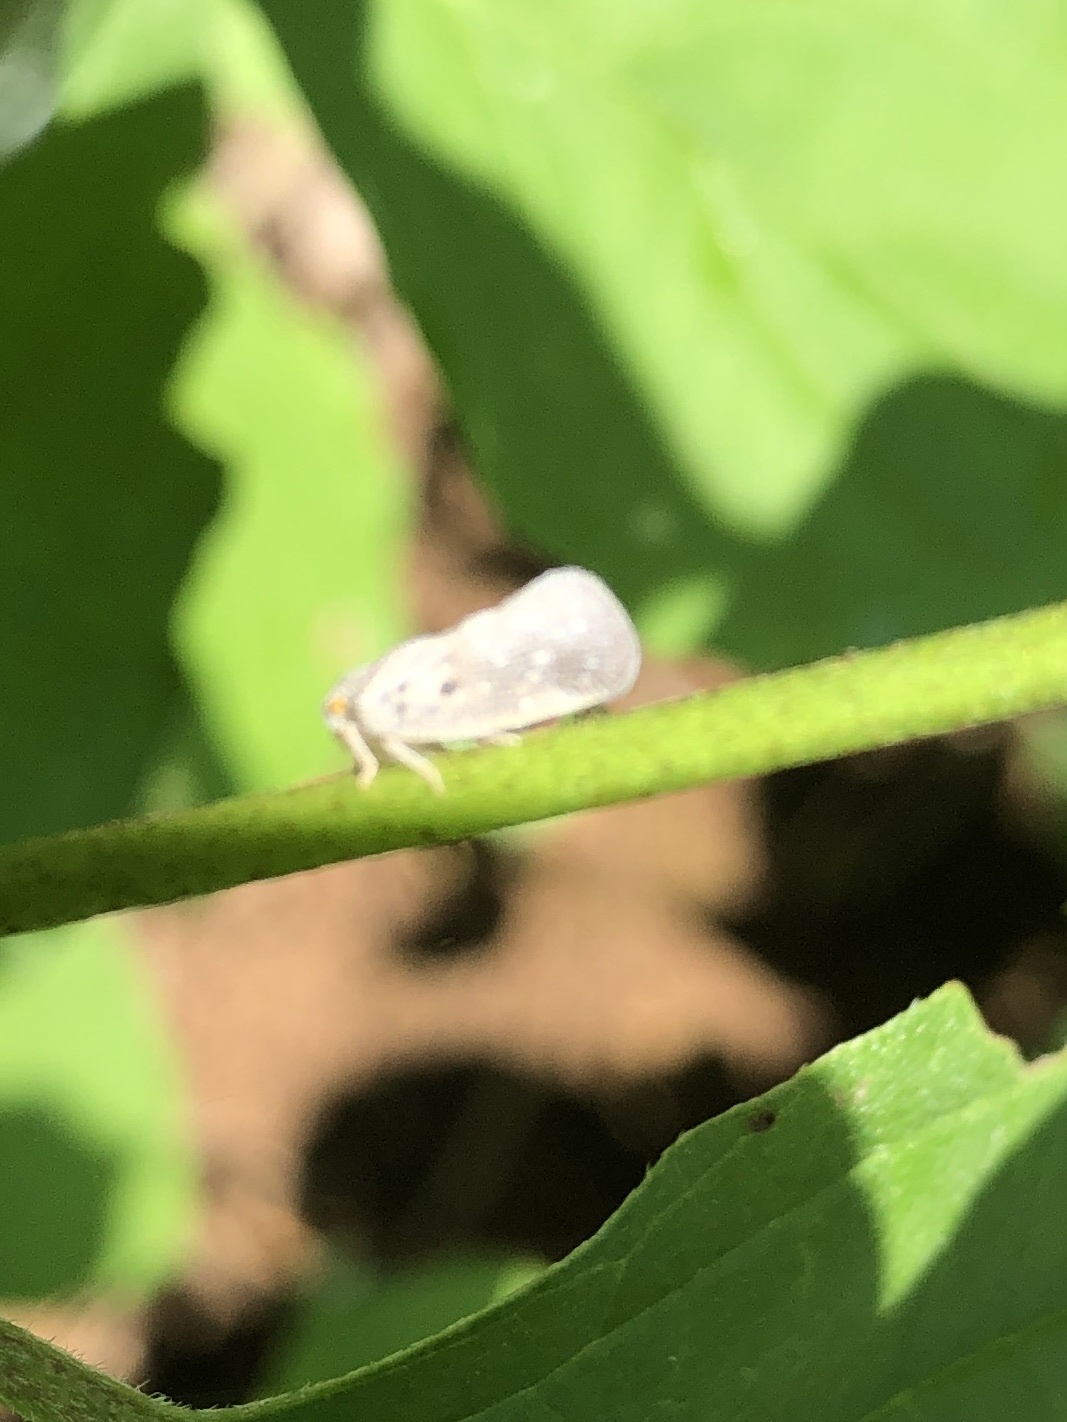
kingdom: Animalia
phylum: Arthropoda
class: Insecta
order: Hemiptera
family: Flatidae
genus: Metcalfa
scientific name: Metcalfa pruinosa
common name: Citrus flatid planthopper
